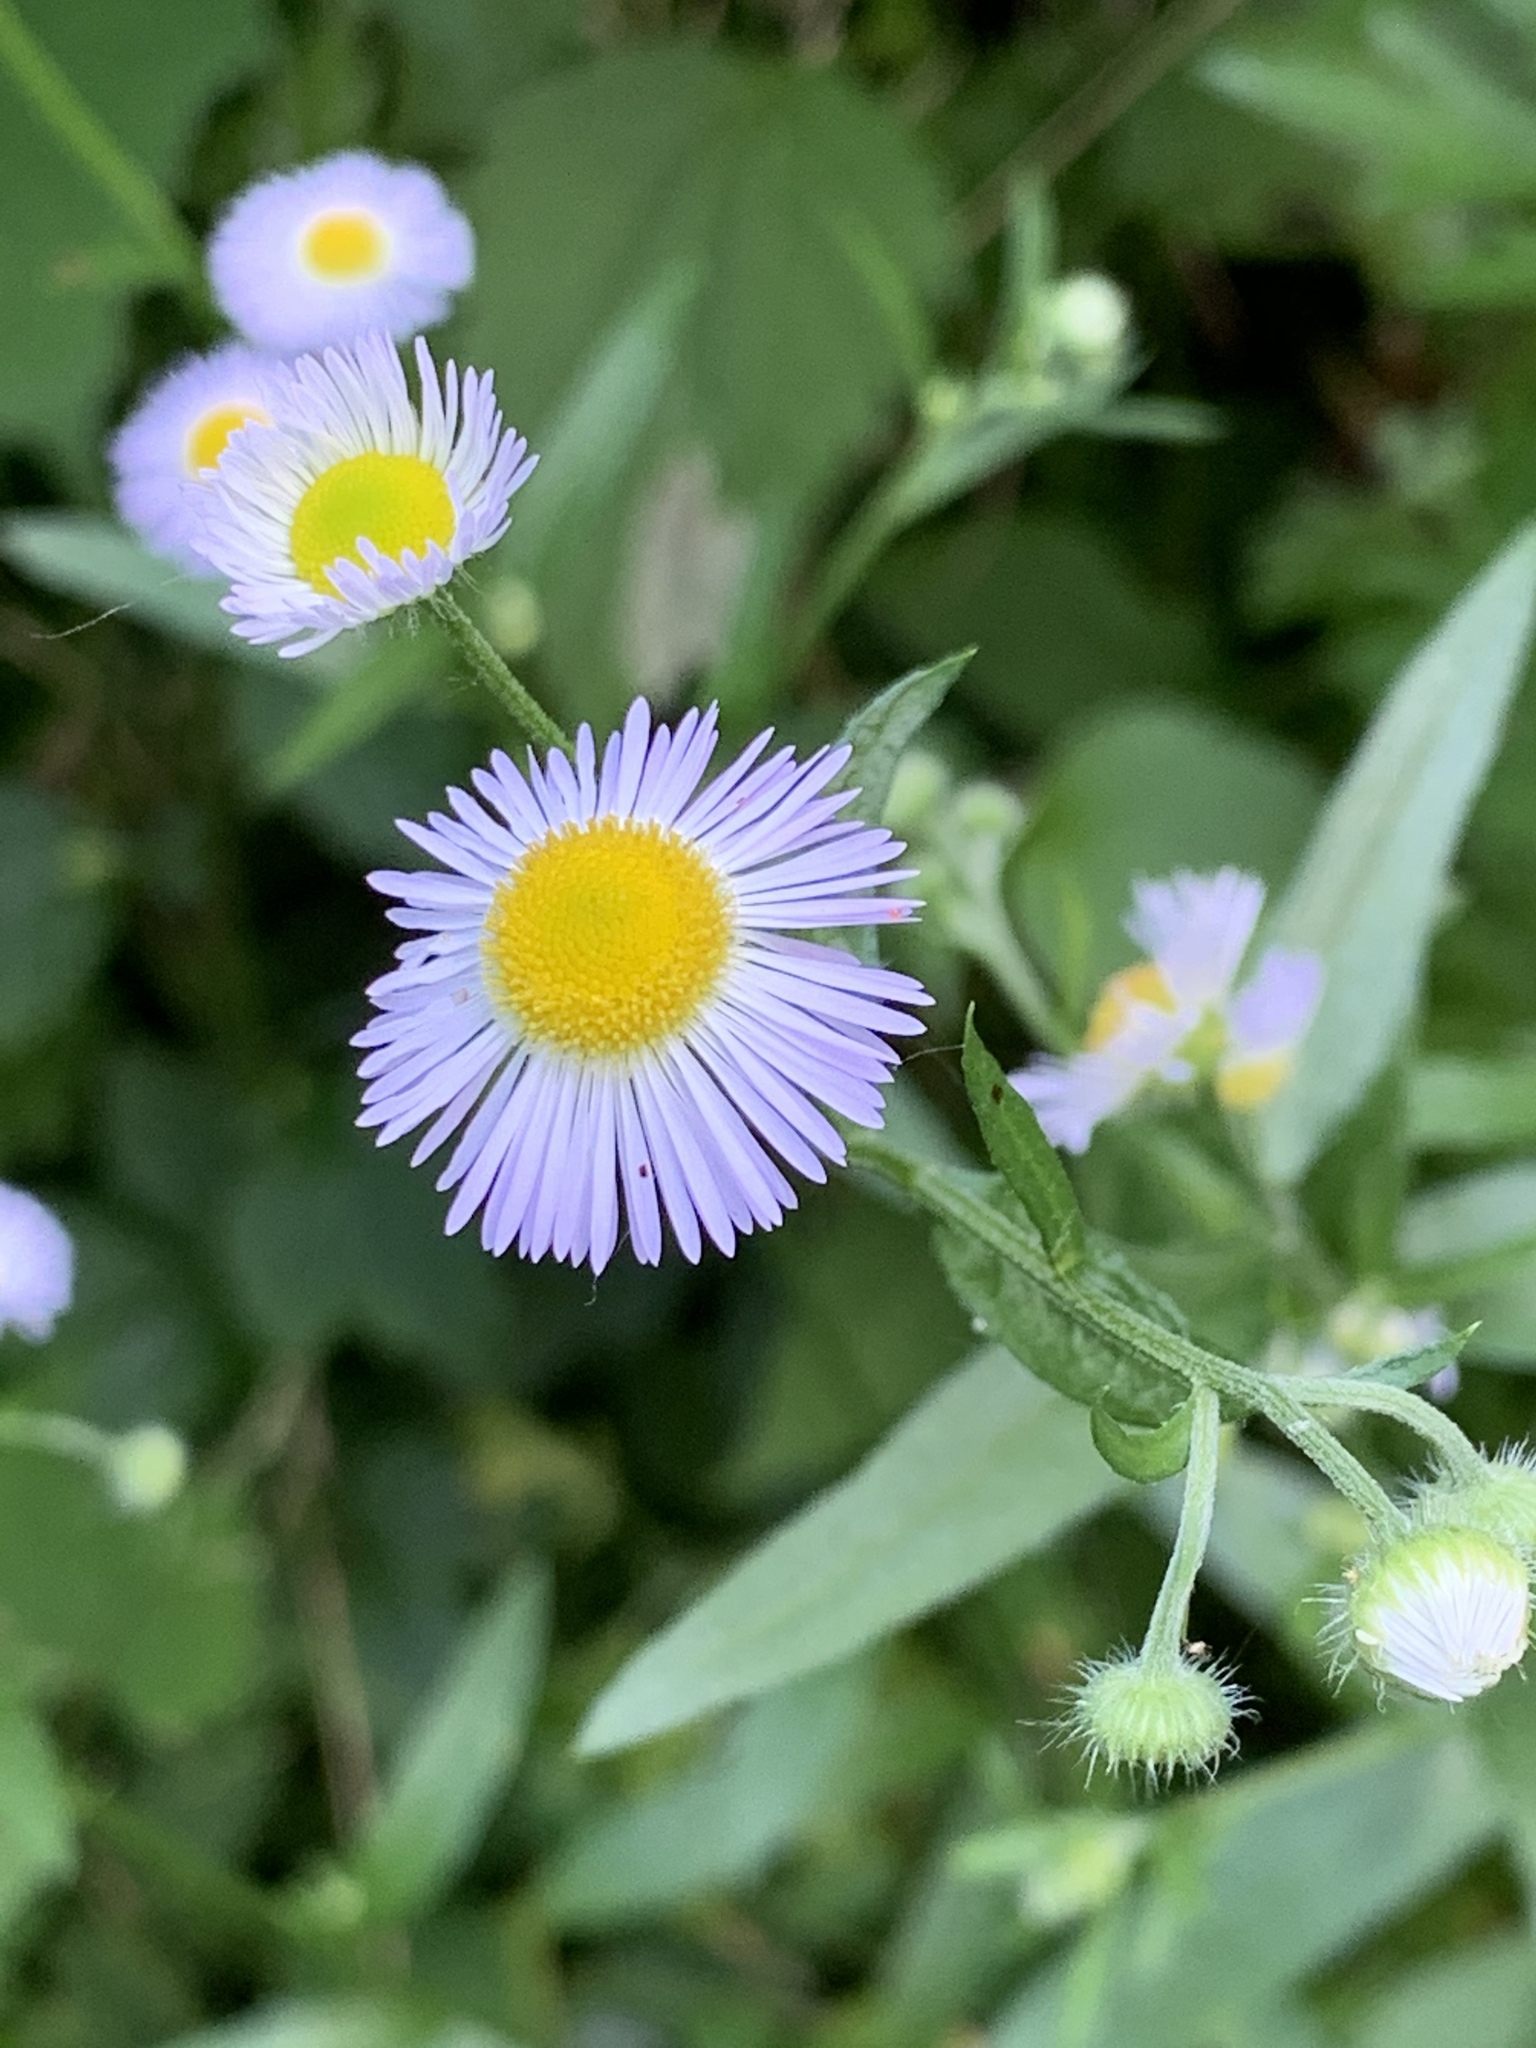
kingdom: Plantae
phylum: Tracheophyta
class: Magnoliopsida
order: Asterales
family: Asteraceae
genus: Erigeron
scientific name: Erigeron strigosus
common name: Common eastern fleabane
